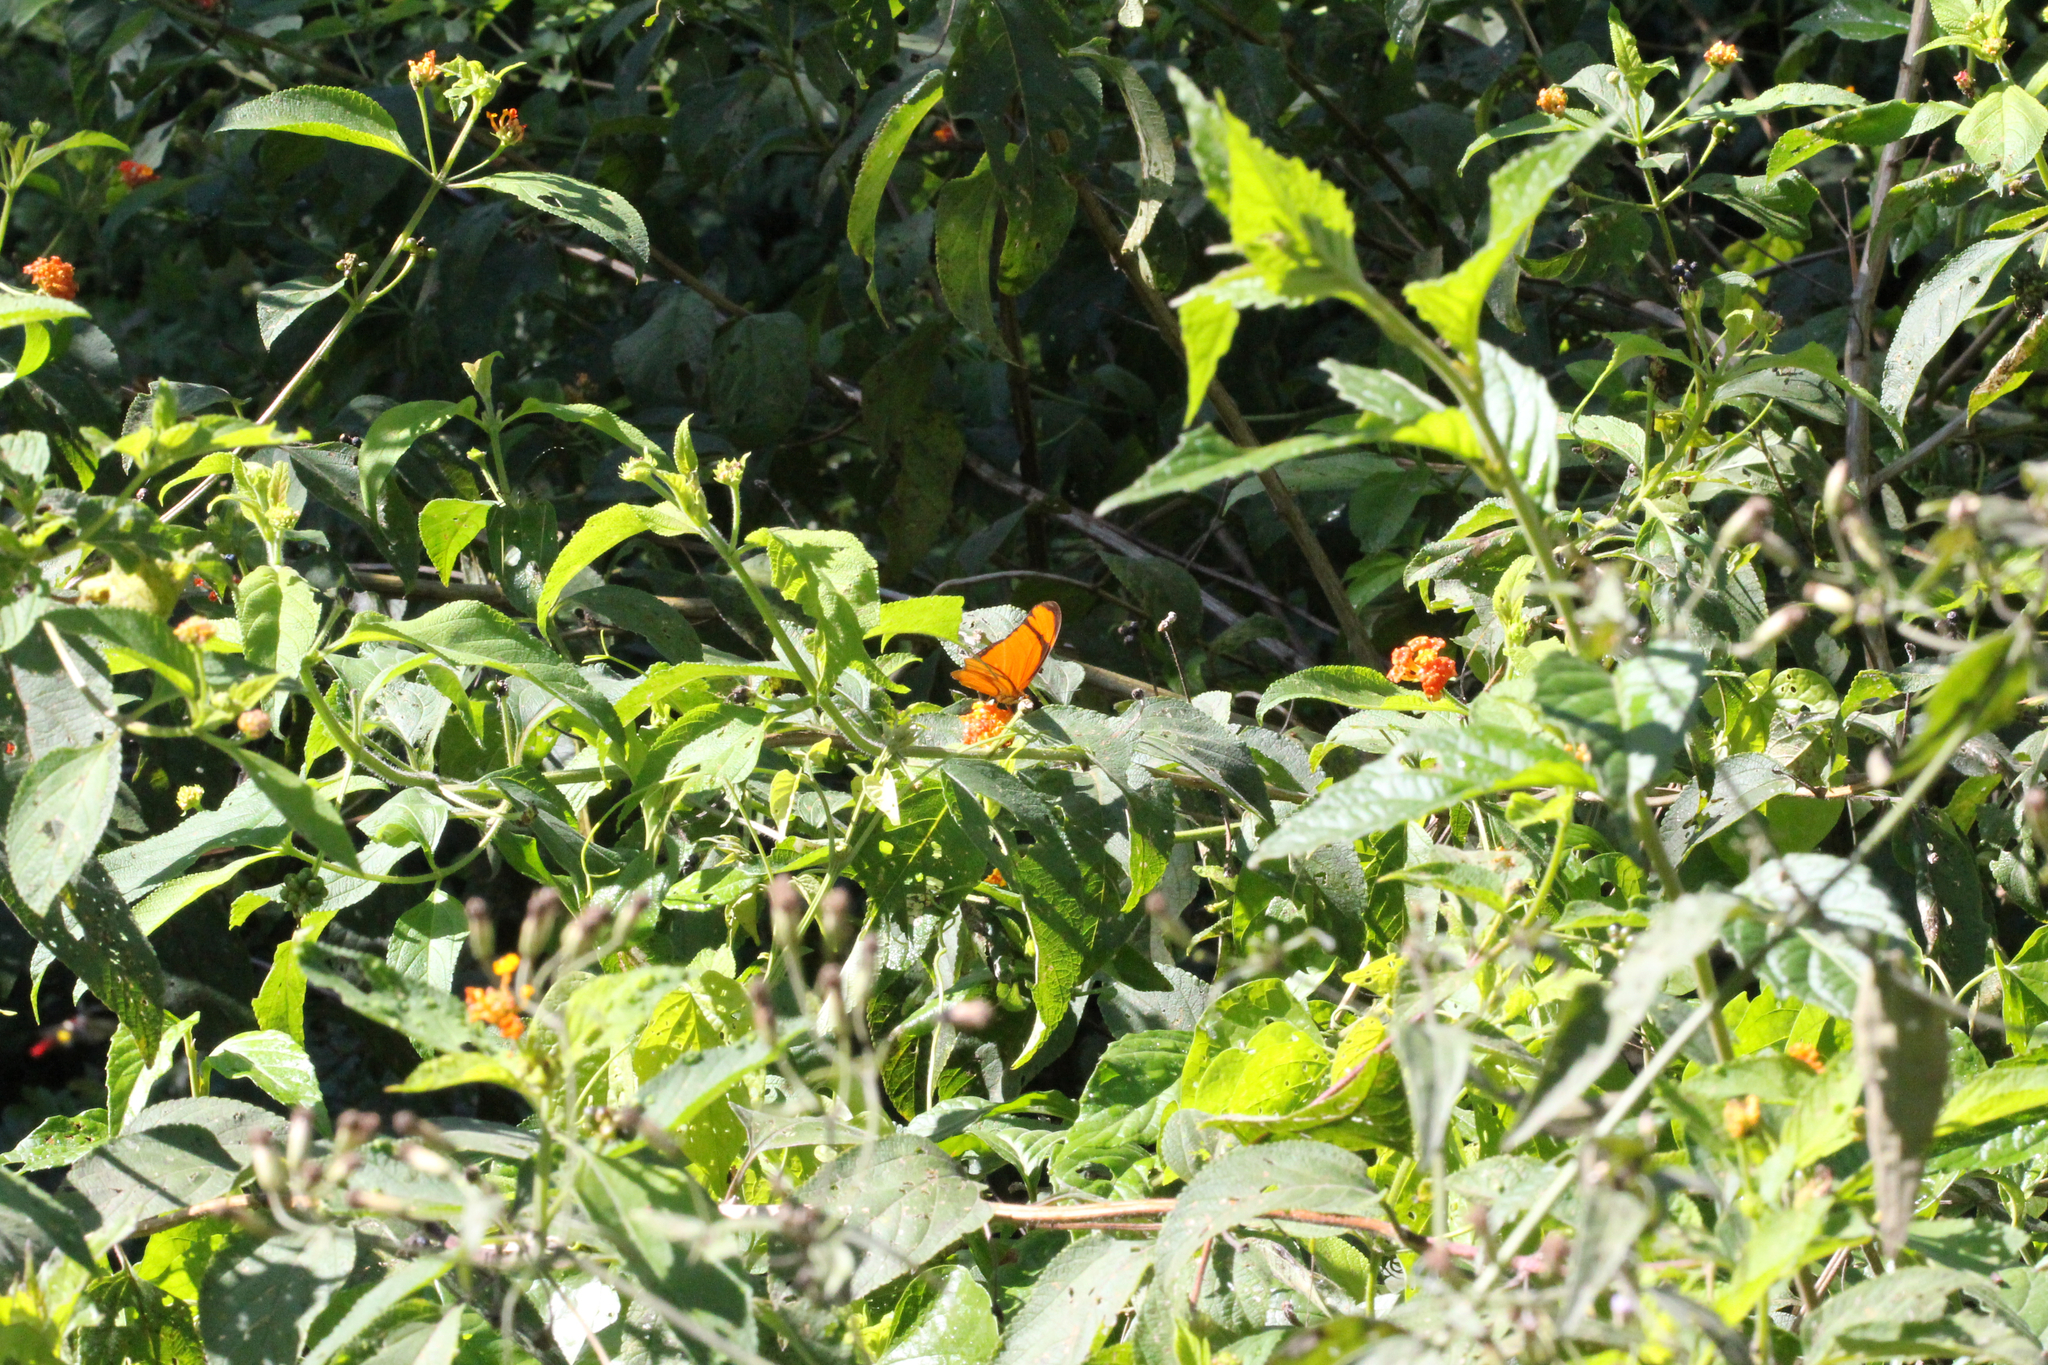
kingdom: Animalia
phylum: Arthropoda
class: Insecta
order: Lepidoptera
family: Nymphalidae
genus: Dryas
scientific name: Dryas iulia
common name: Flambeau
